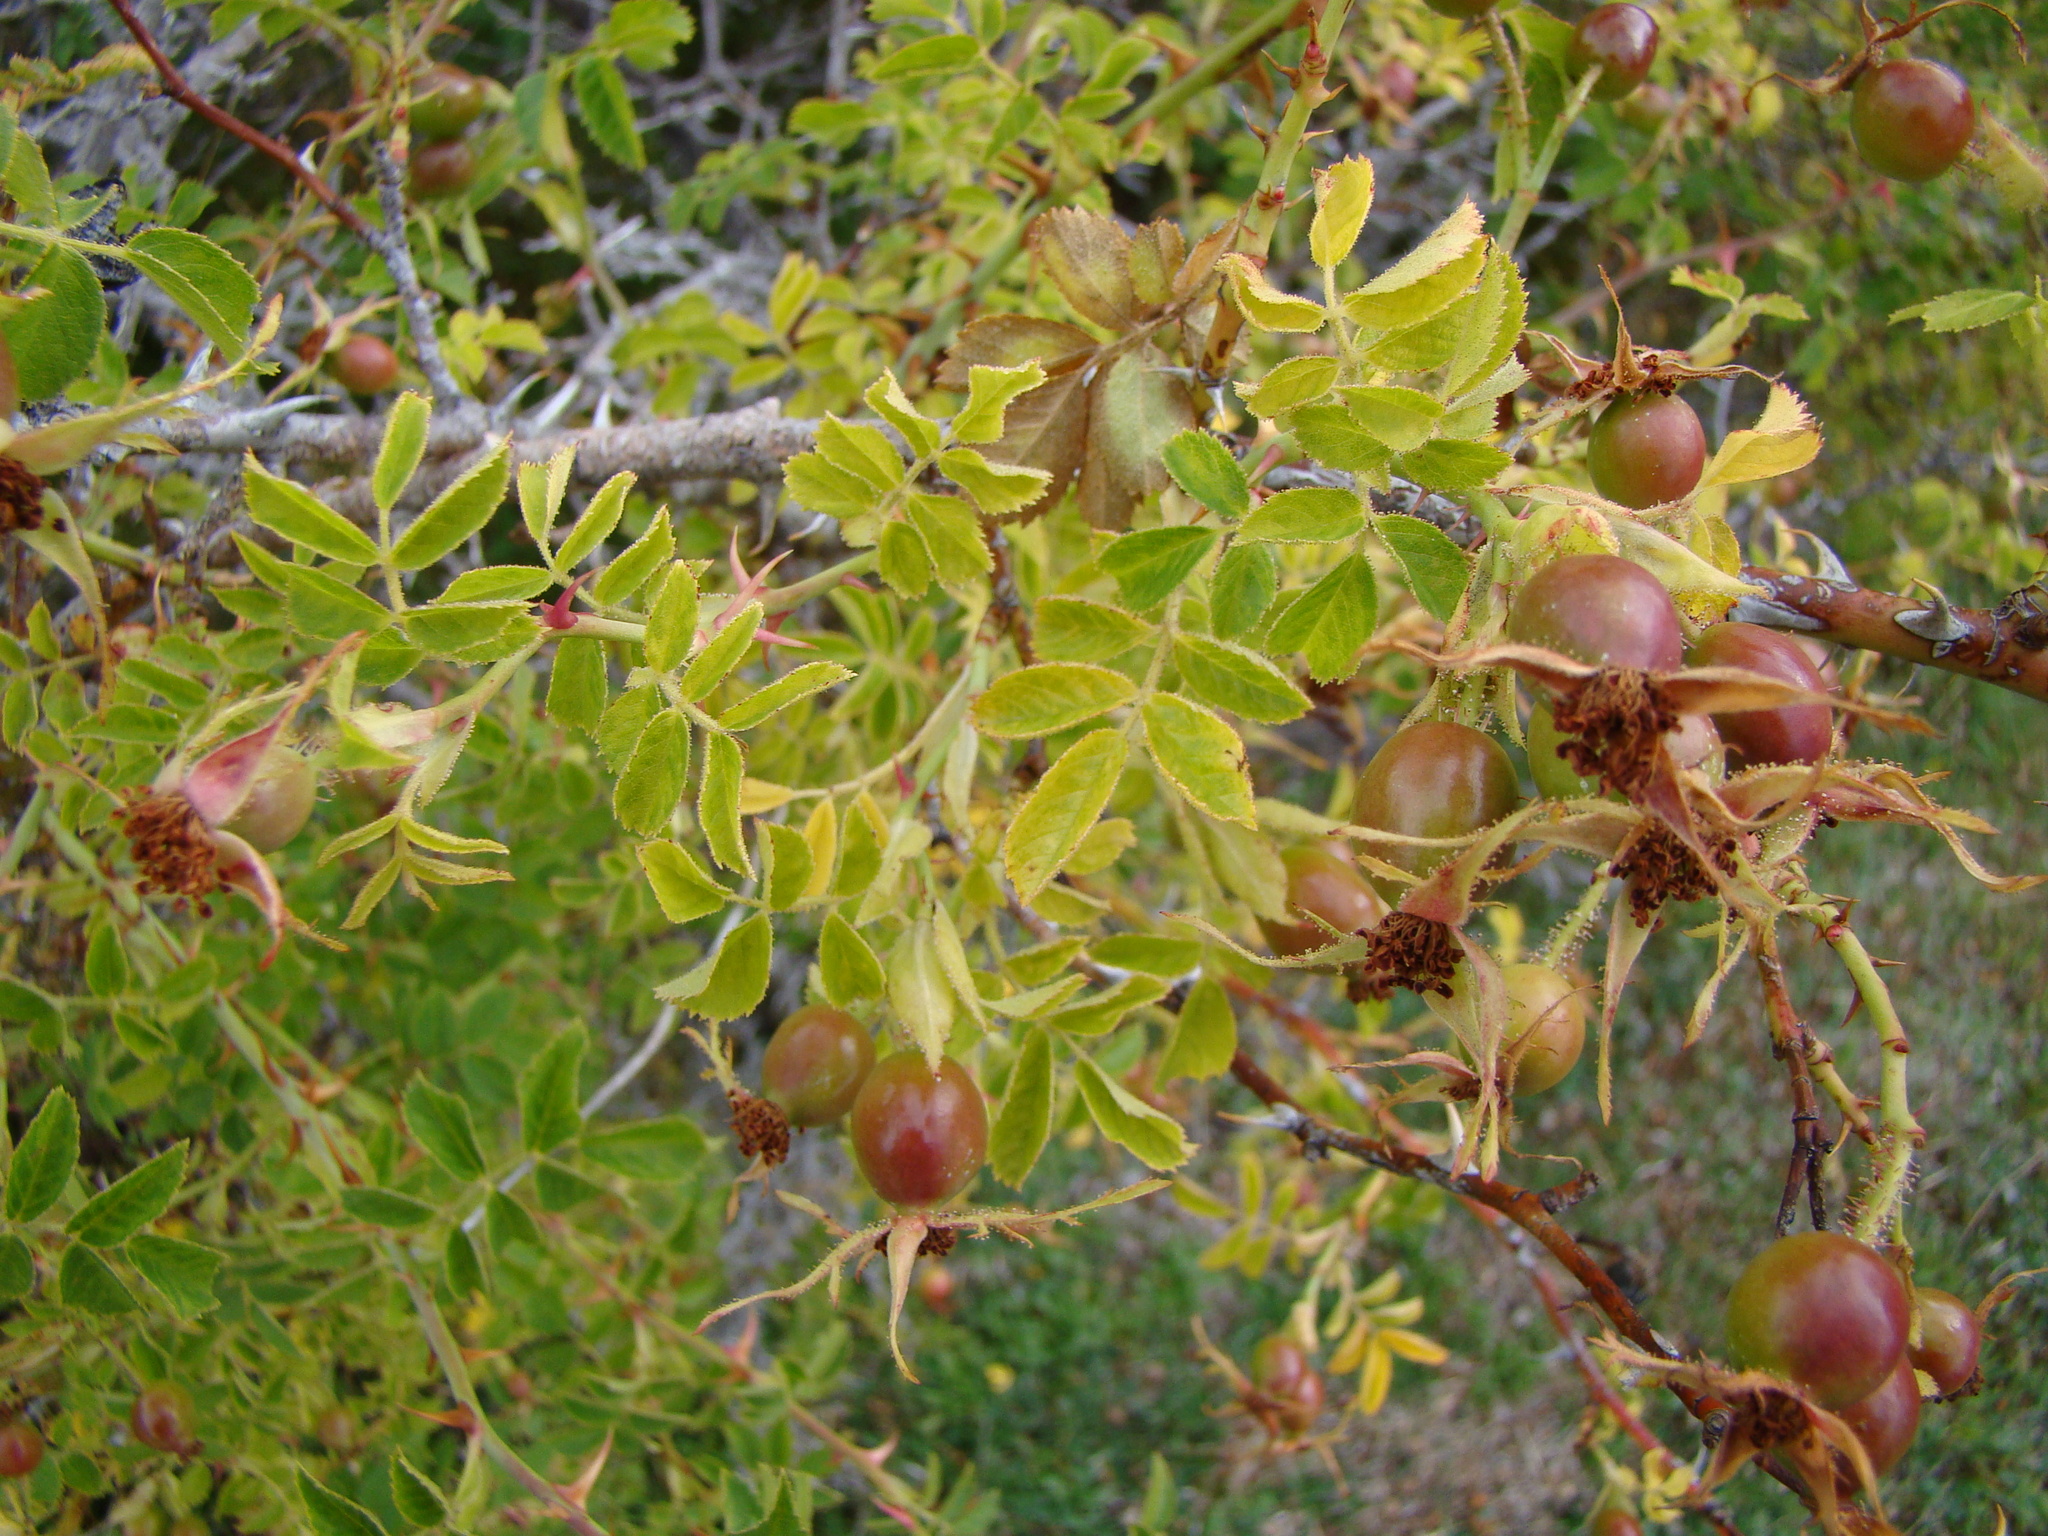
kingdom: Plantae
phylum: Tracheophyta
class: Magnoliopsida
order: Rosales
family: Rosaceae
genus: Rosa
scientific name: Rosa rubiginosa
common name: Sweet-briar
